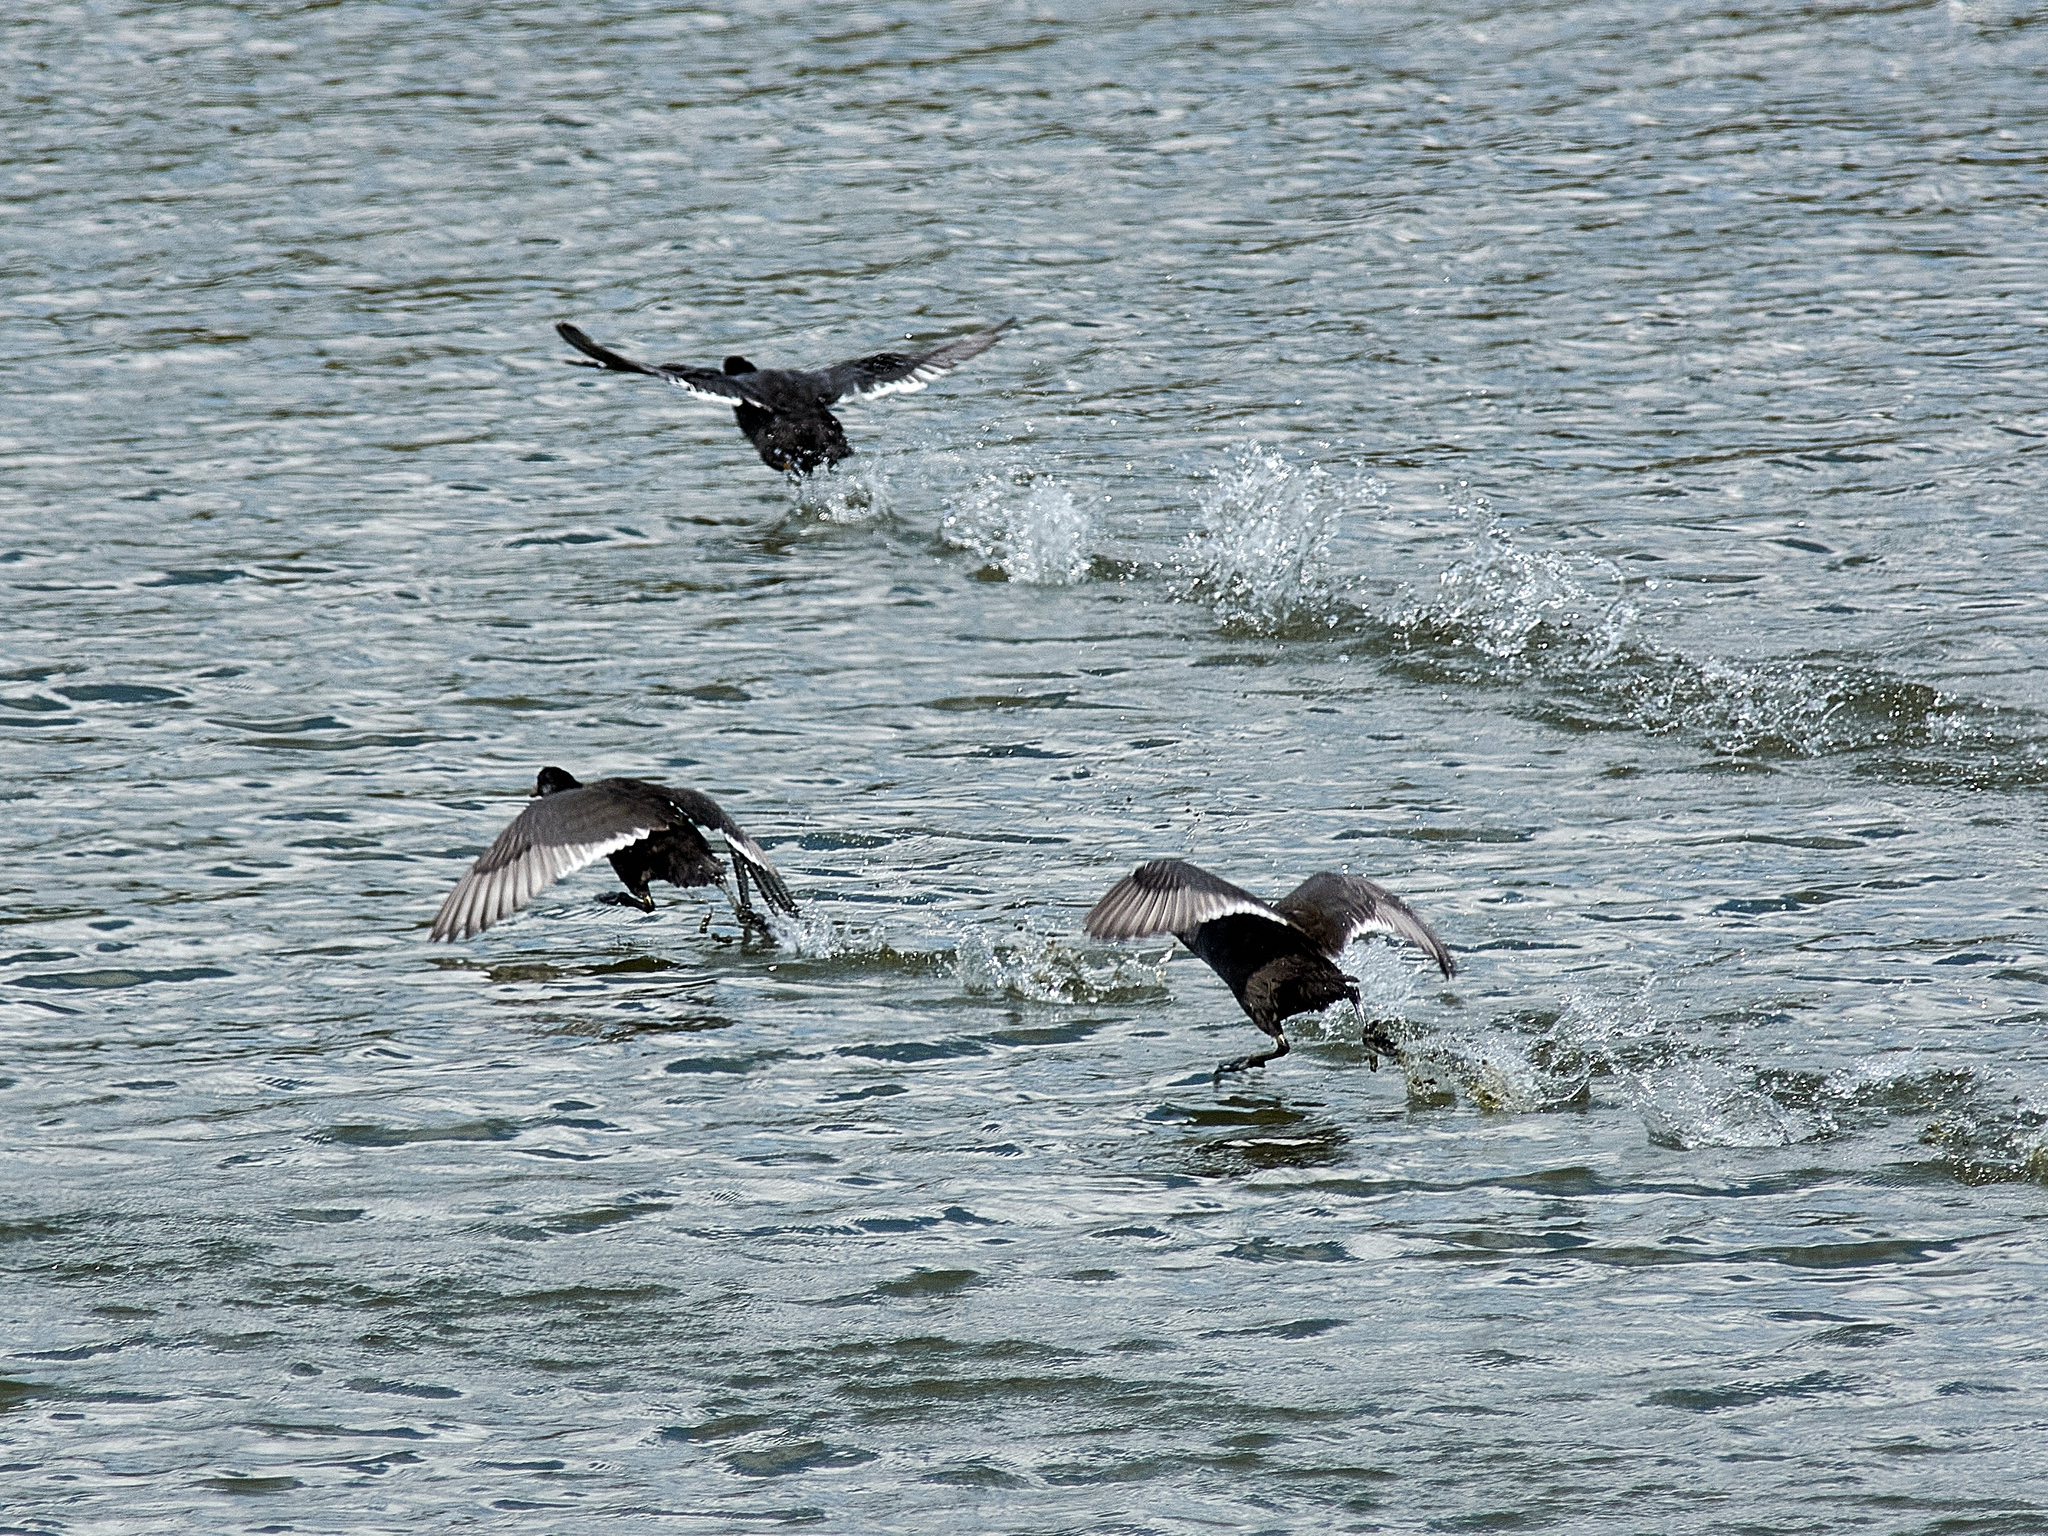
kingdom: Animalia
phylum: Chordata
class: Aves
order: Gruiformes
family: Rallidae
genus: Fulica
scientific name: Fulica atra
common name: Eurasian coot
